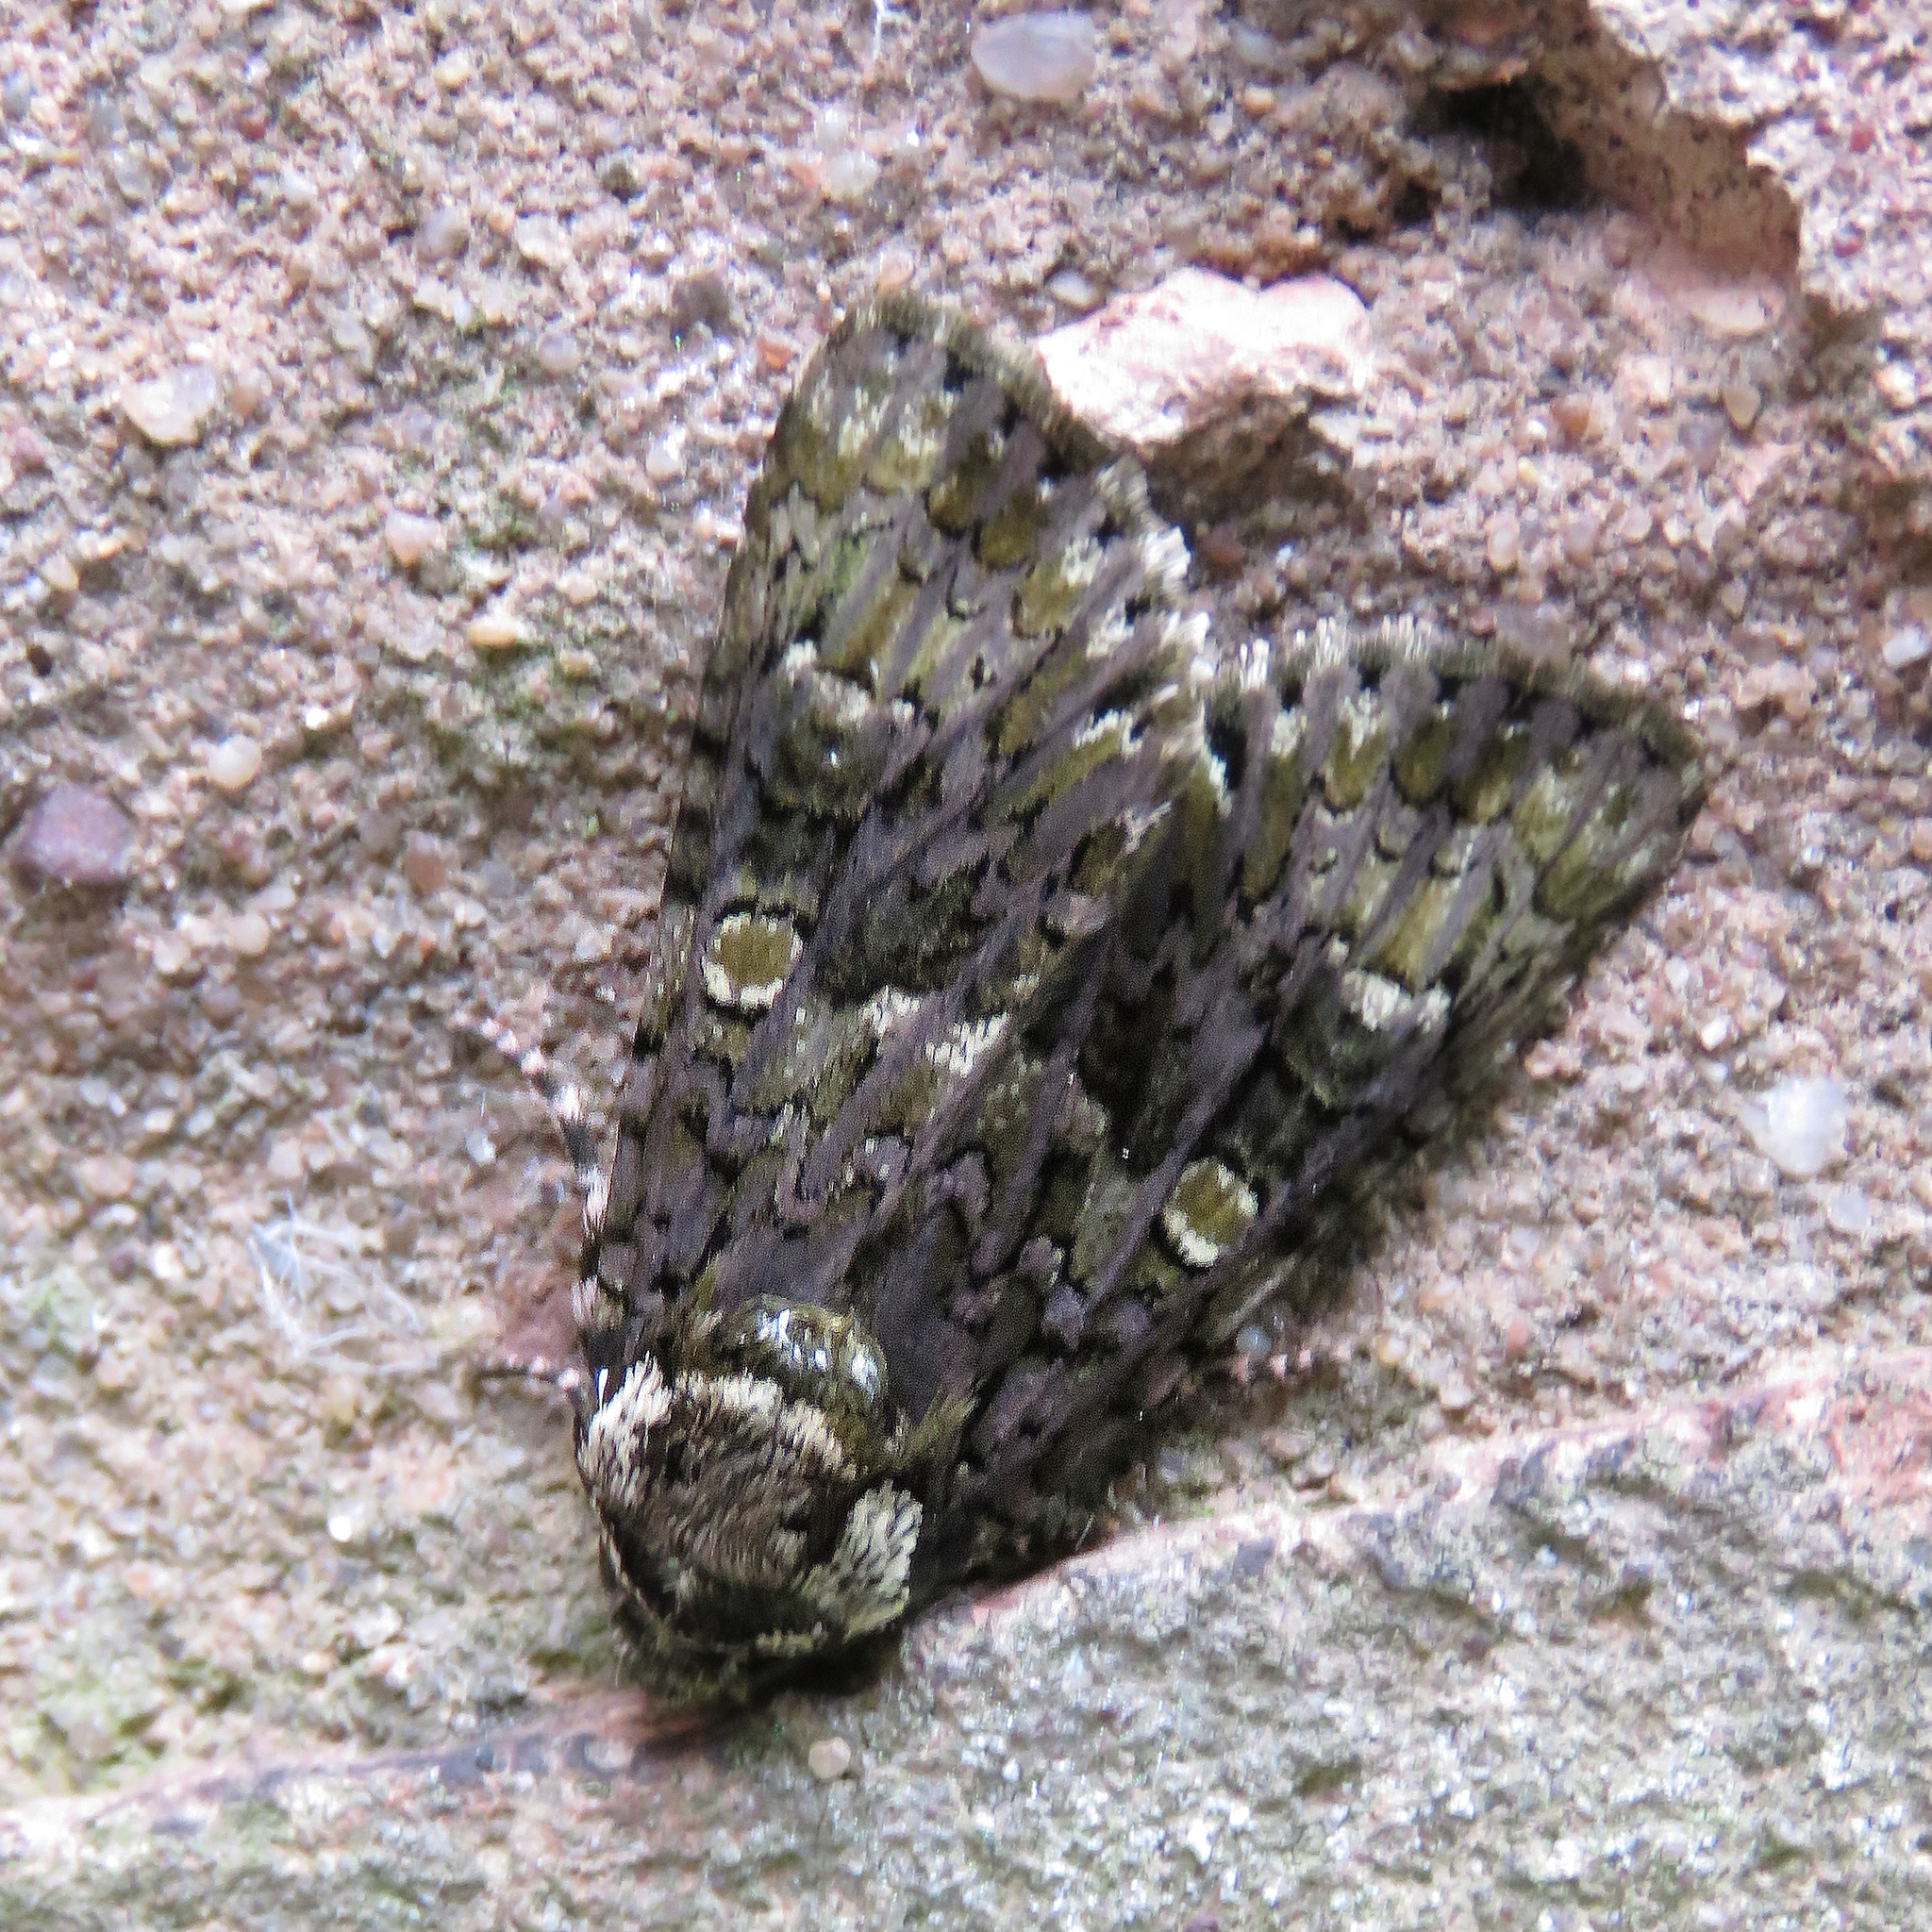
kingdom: Animalia
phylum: Arthropoda
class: Insecta
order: Lepidoptera
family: Noctuidae
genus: Craniophora
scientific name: Craniophora ligustri
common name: Coronet
